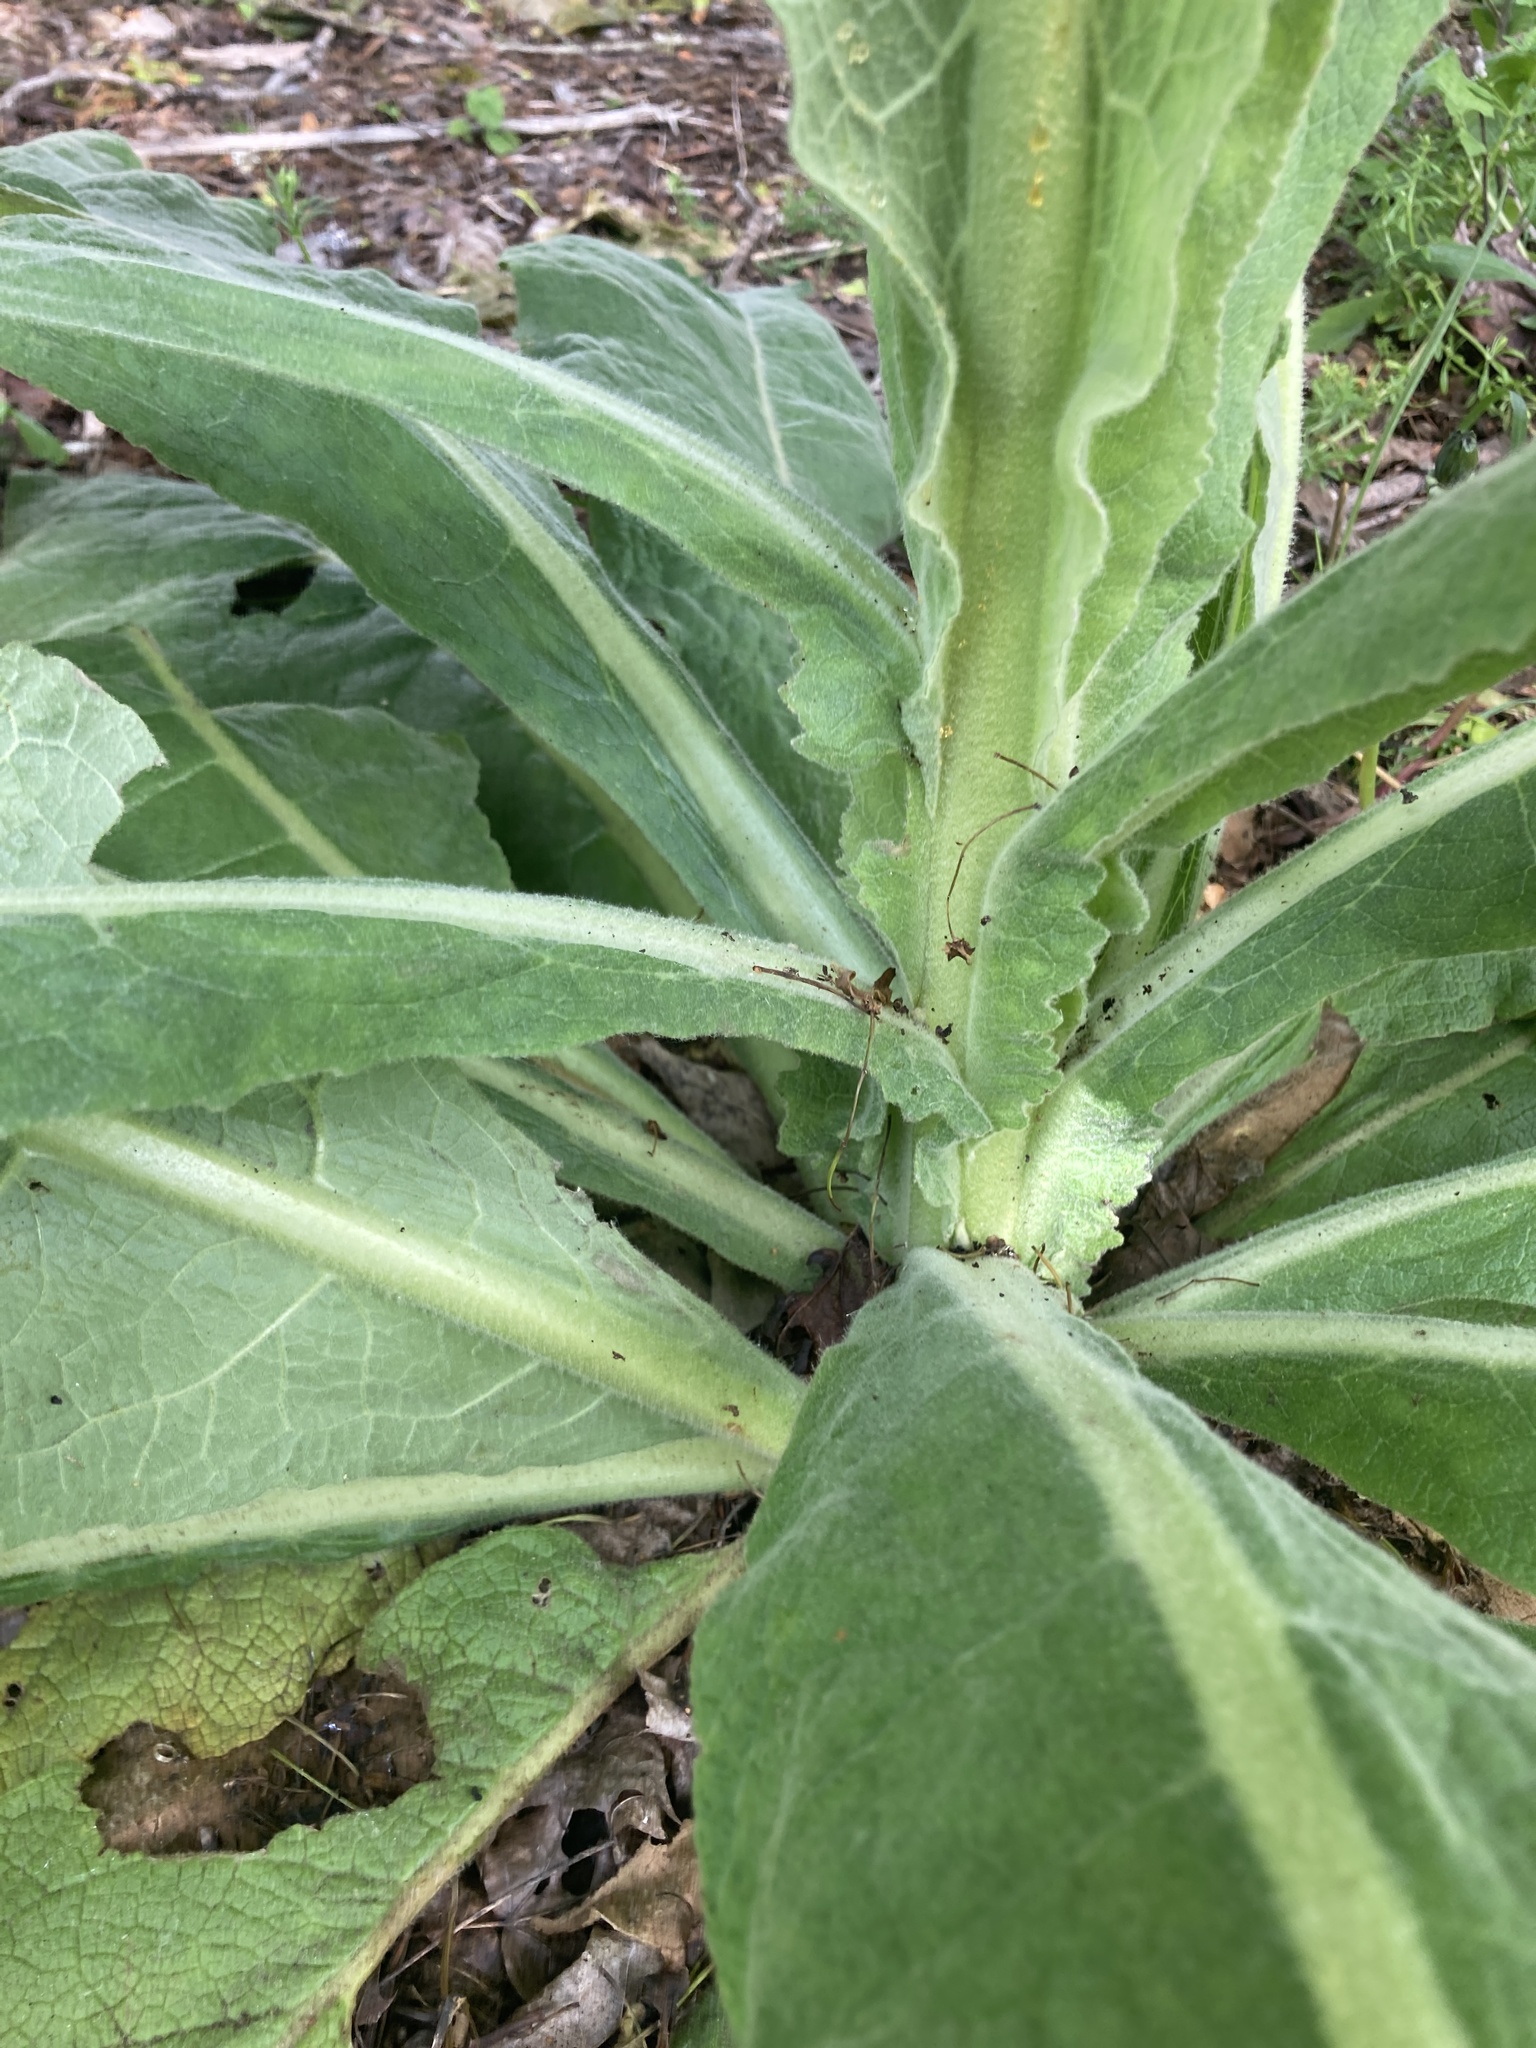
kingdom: Plantae
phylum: Tracheophyta
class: Magnoliopsida
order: Lamiales
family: Scrophulariaceae
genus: Verbascum
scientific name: Verbascum thapsus
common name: Common mullein
